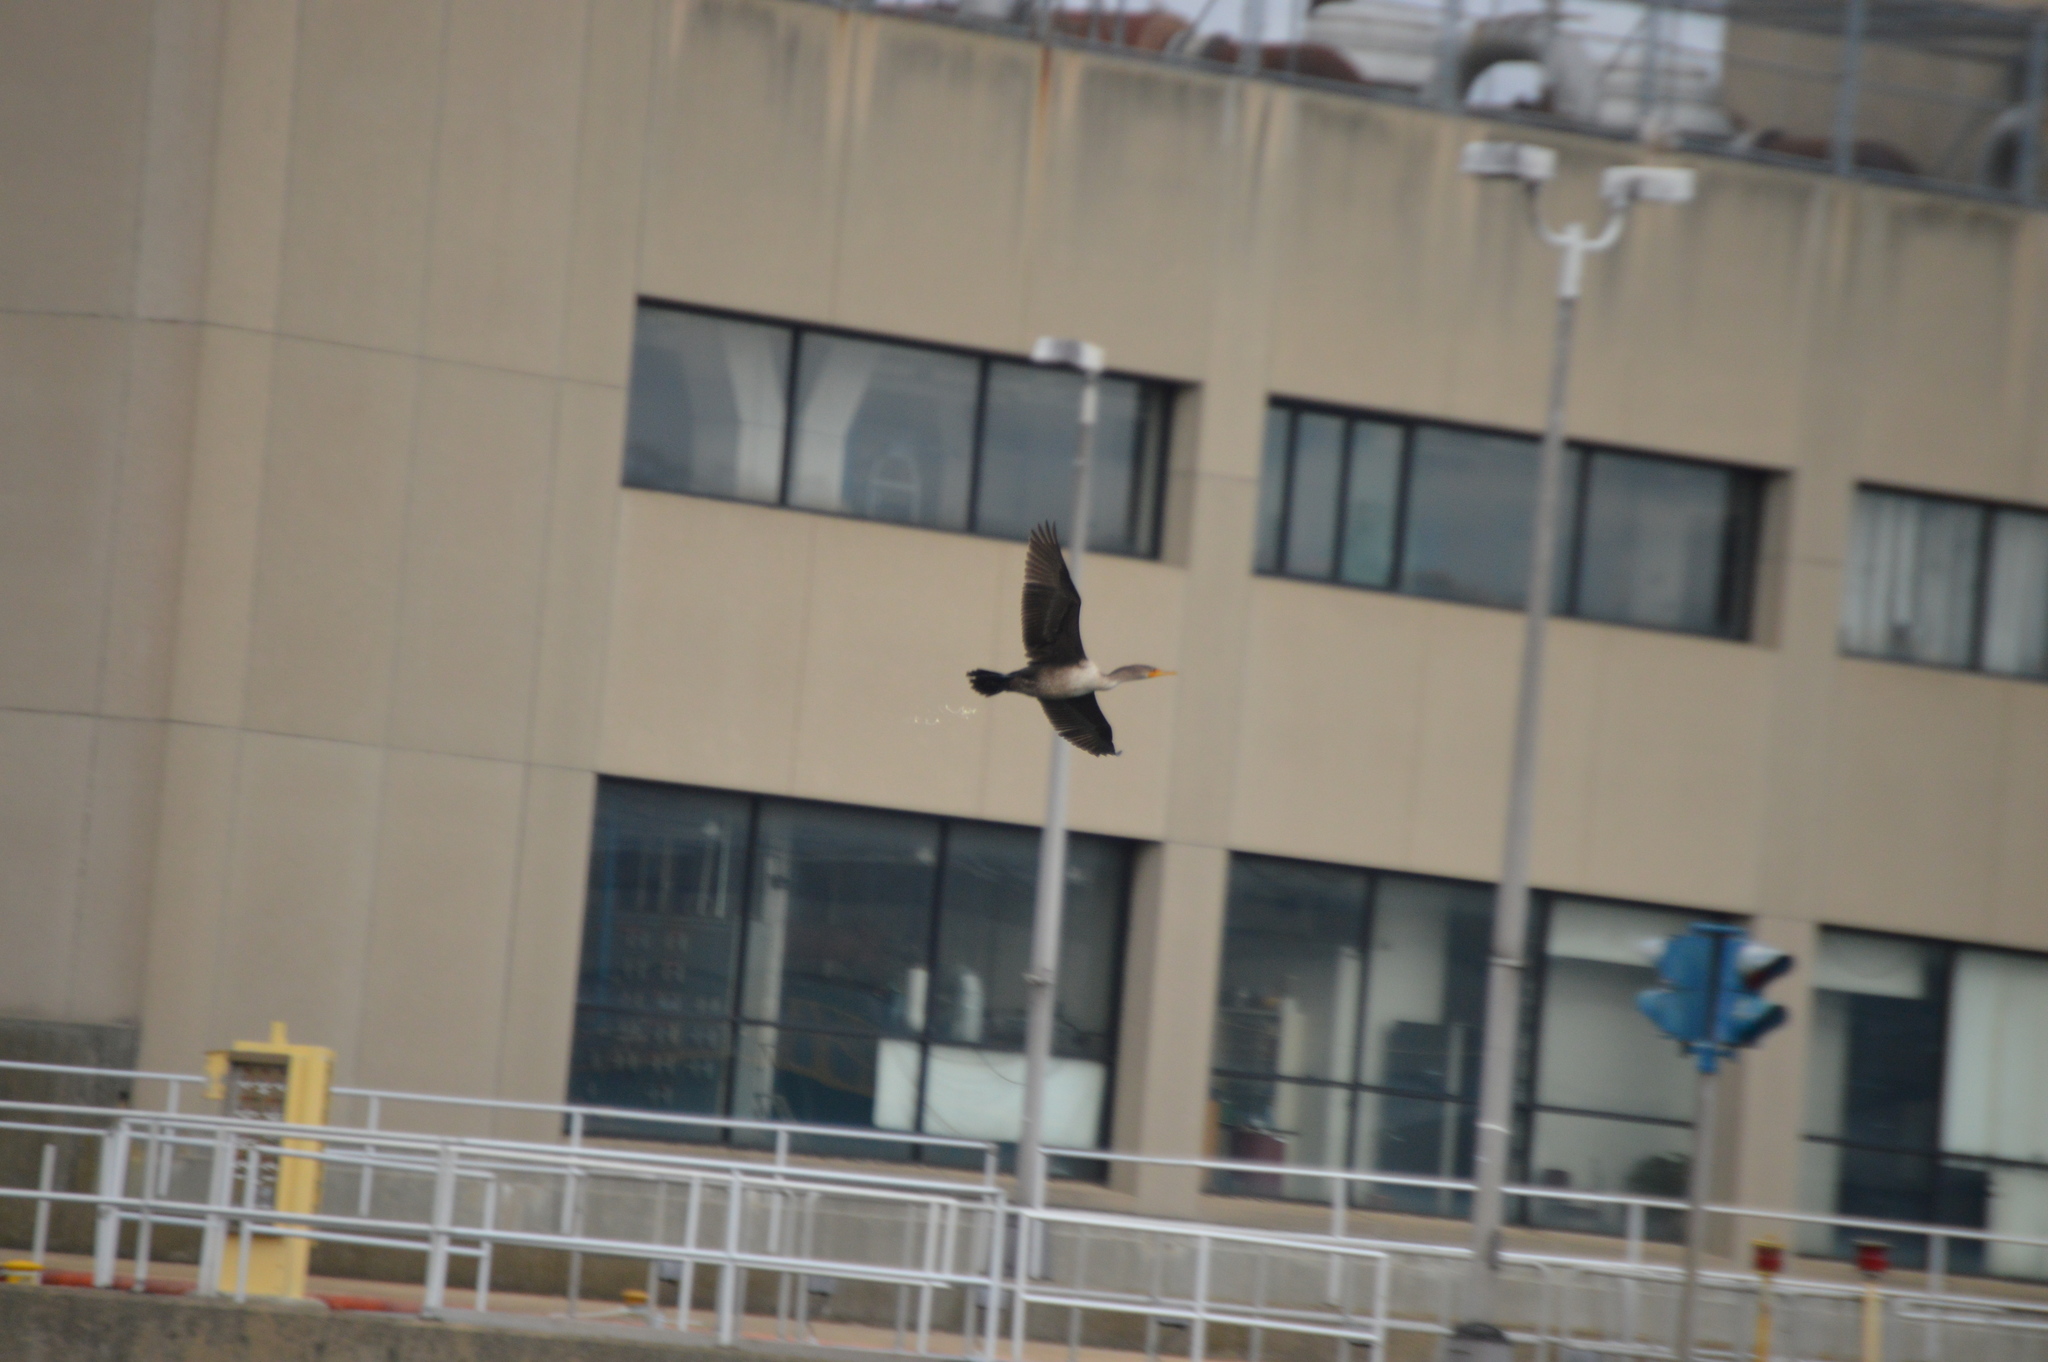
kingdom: Animalia
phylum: Chordata
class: Aves
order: Suliformes
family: Phalacrocoracidae
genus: Phalacrocorax
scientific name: Phalacrocorax auritus
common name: Double-crested cormorant
